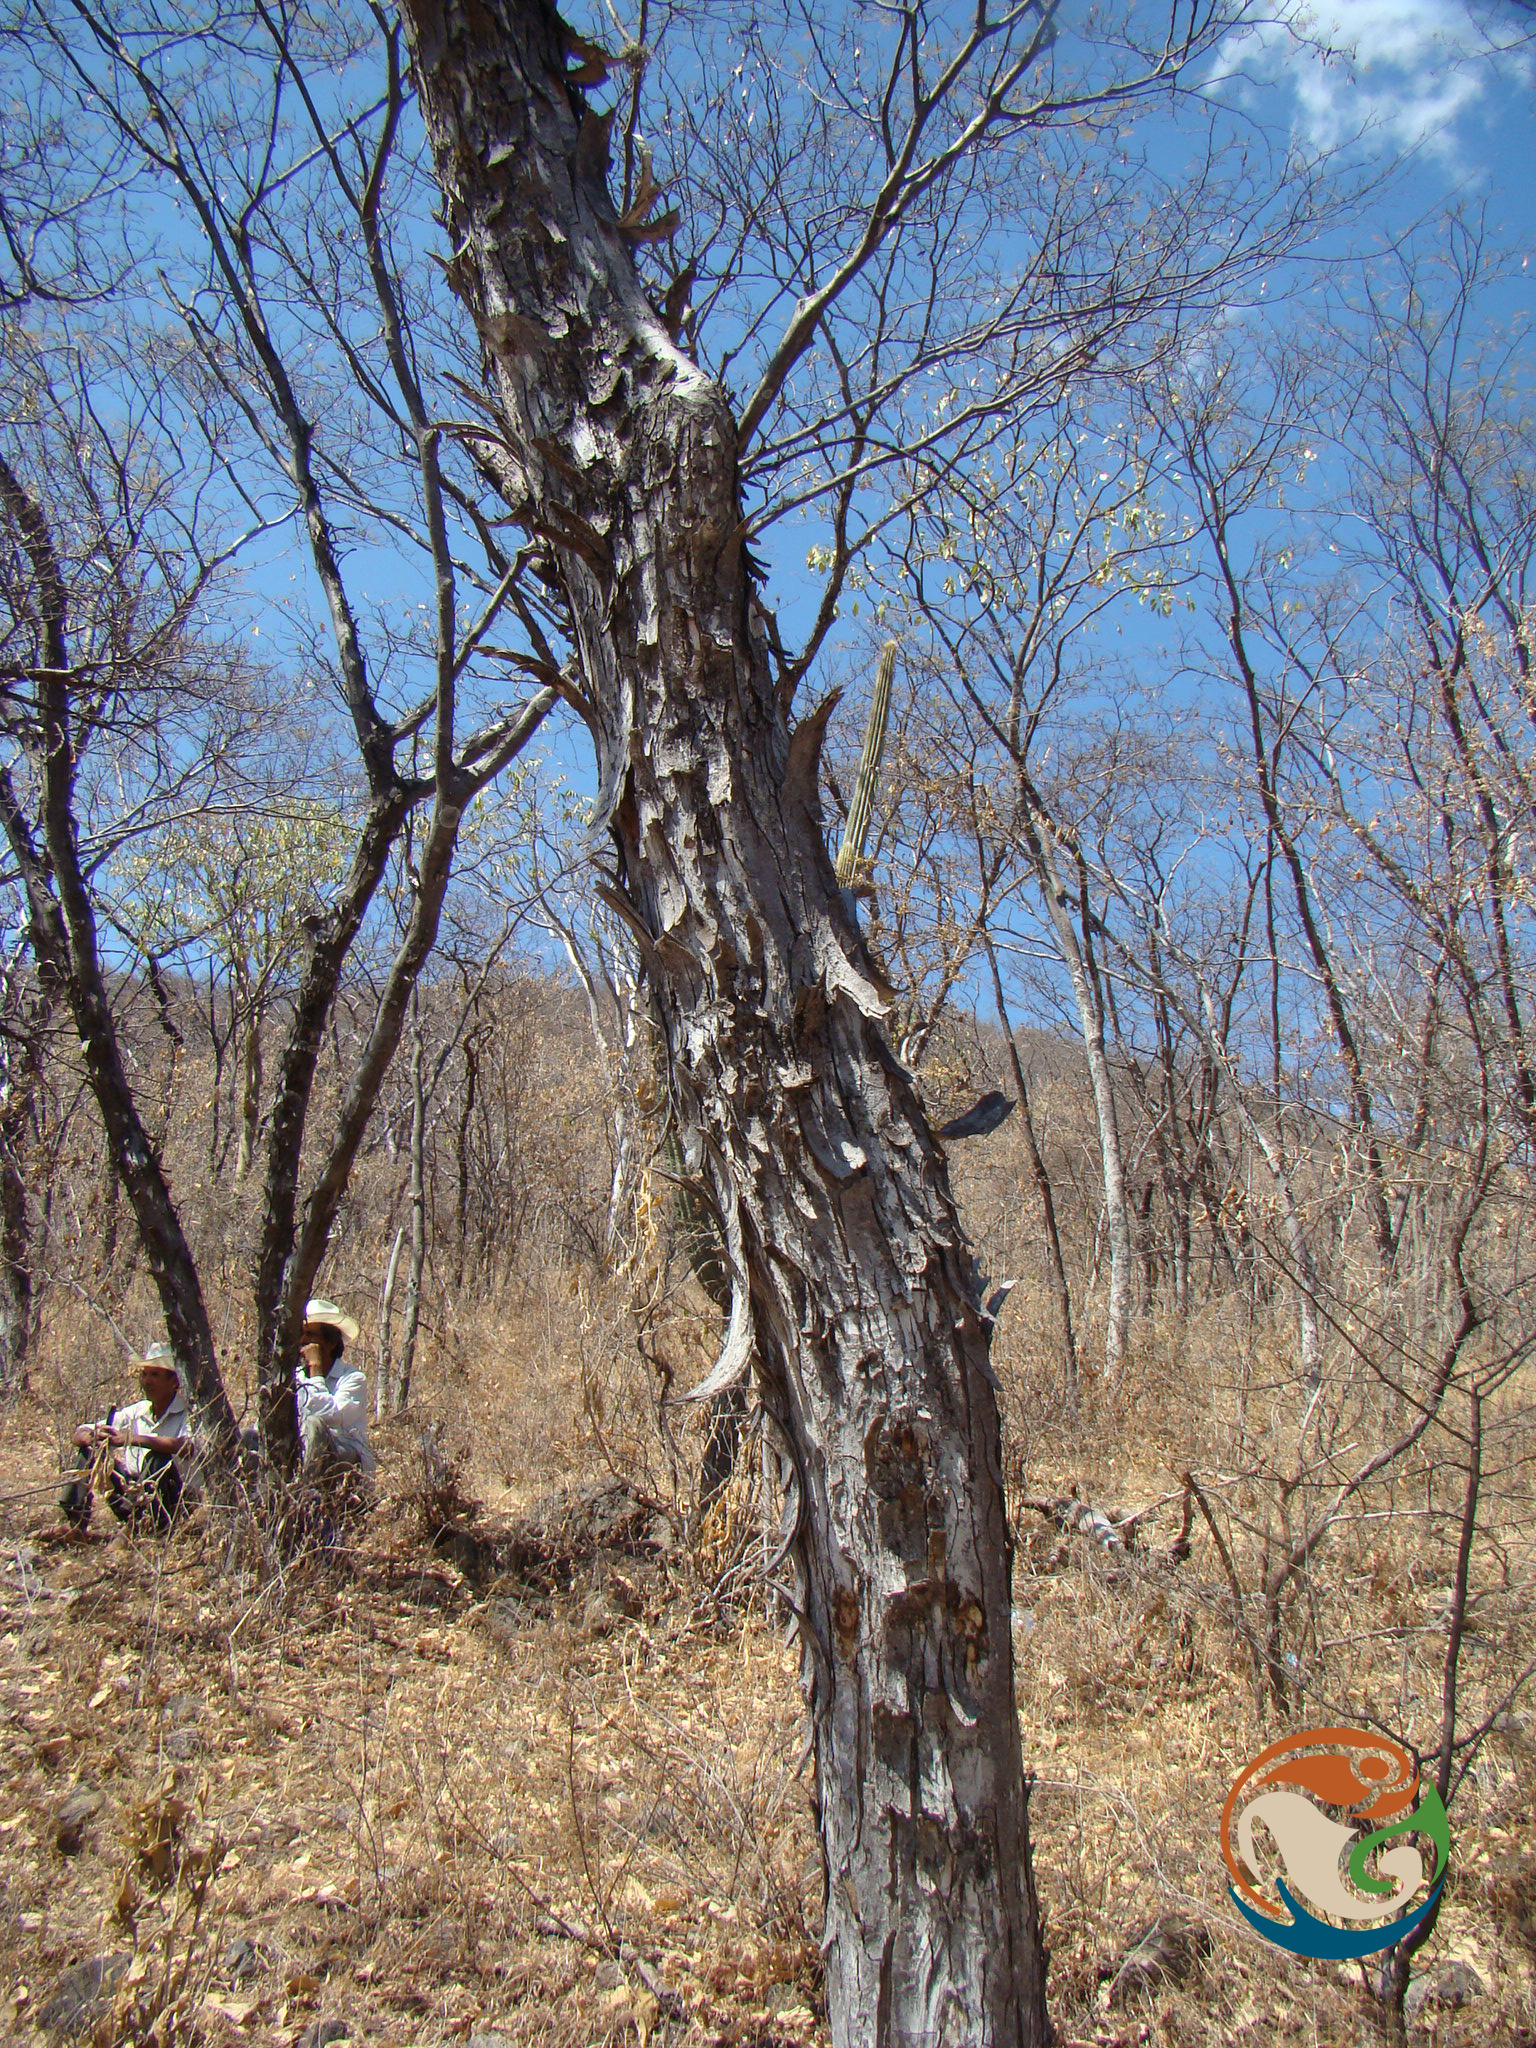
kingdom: Plantae
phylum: Tracheophyta
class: Magnoliopsida
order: Fabales
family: Fabaceae
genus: Lysiloma
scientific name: Lysiloma divaricatum
